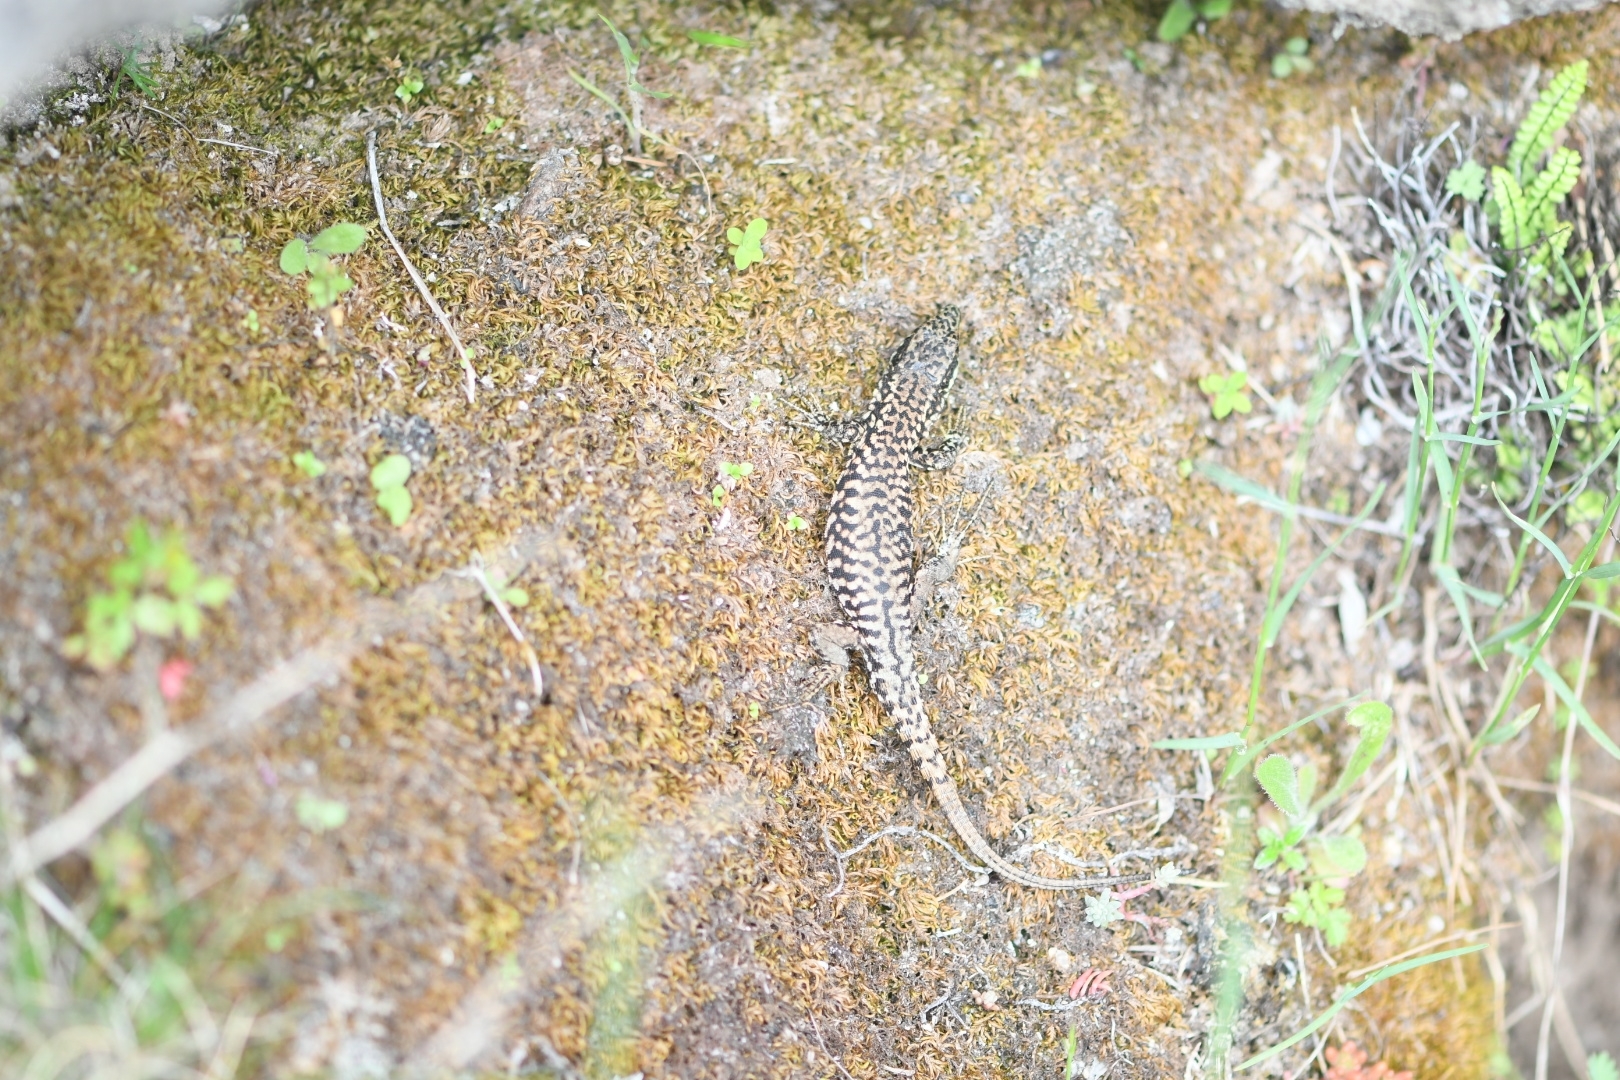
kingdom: Animalia
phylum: Chordata
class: Squamata
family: Lacertidae
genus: Podarcis
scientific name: Podarcis muralis
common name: Common wall lizard
